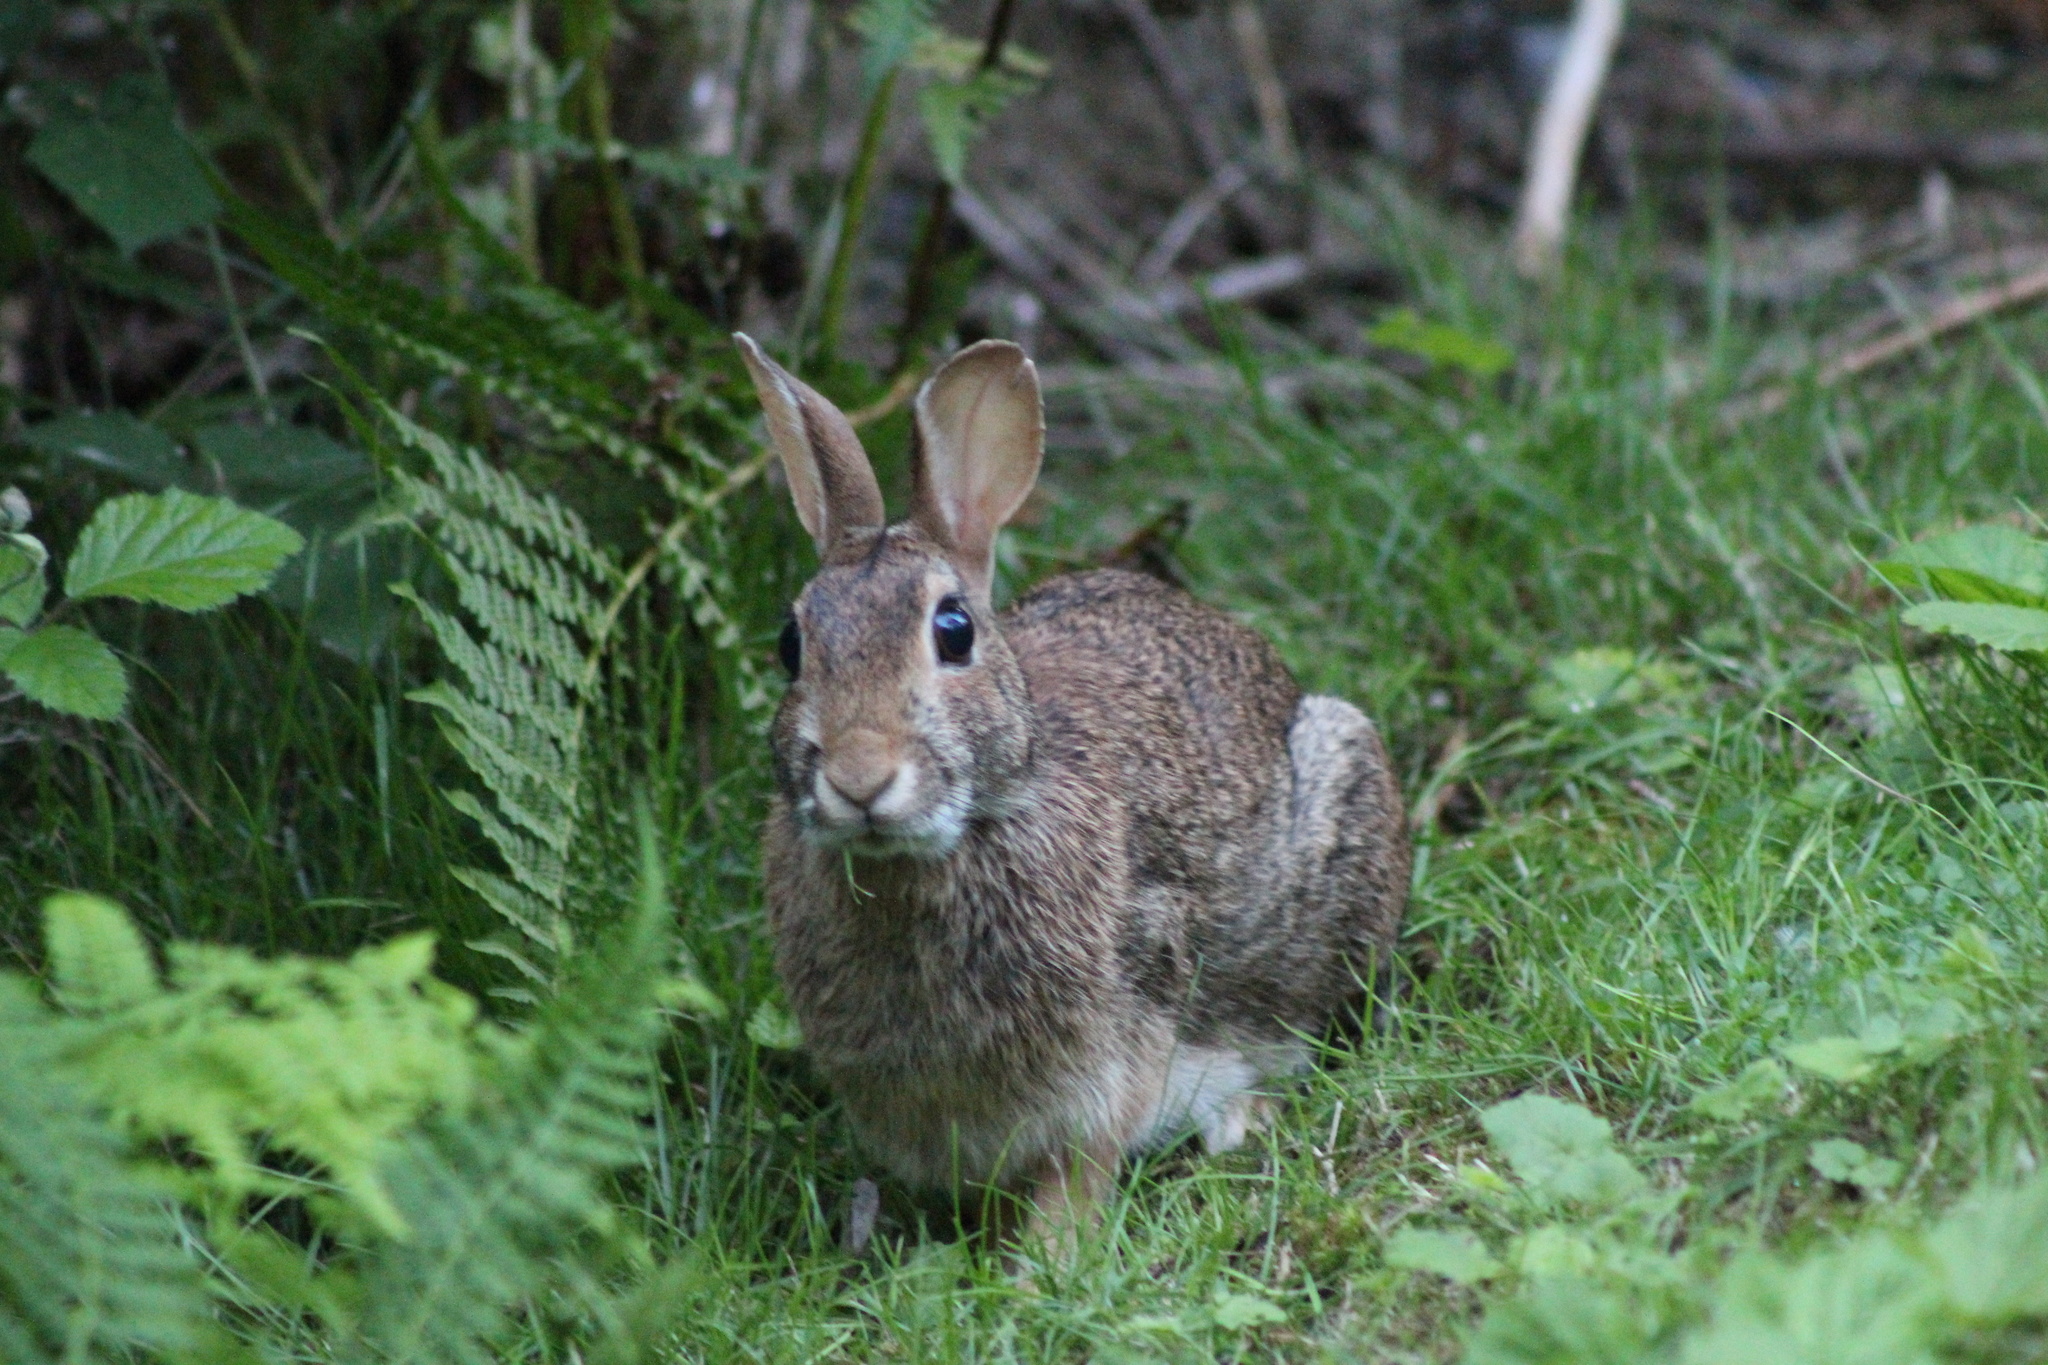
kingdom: Animalia
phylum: Chordata
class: Mammalia
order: Lagomorpha
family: Leporidae
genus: Sylvilagus
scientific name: Sylvilagus floridanus
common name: Eastern cottontail
